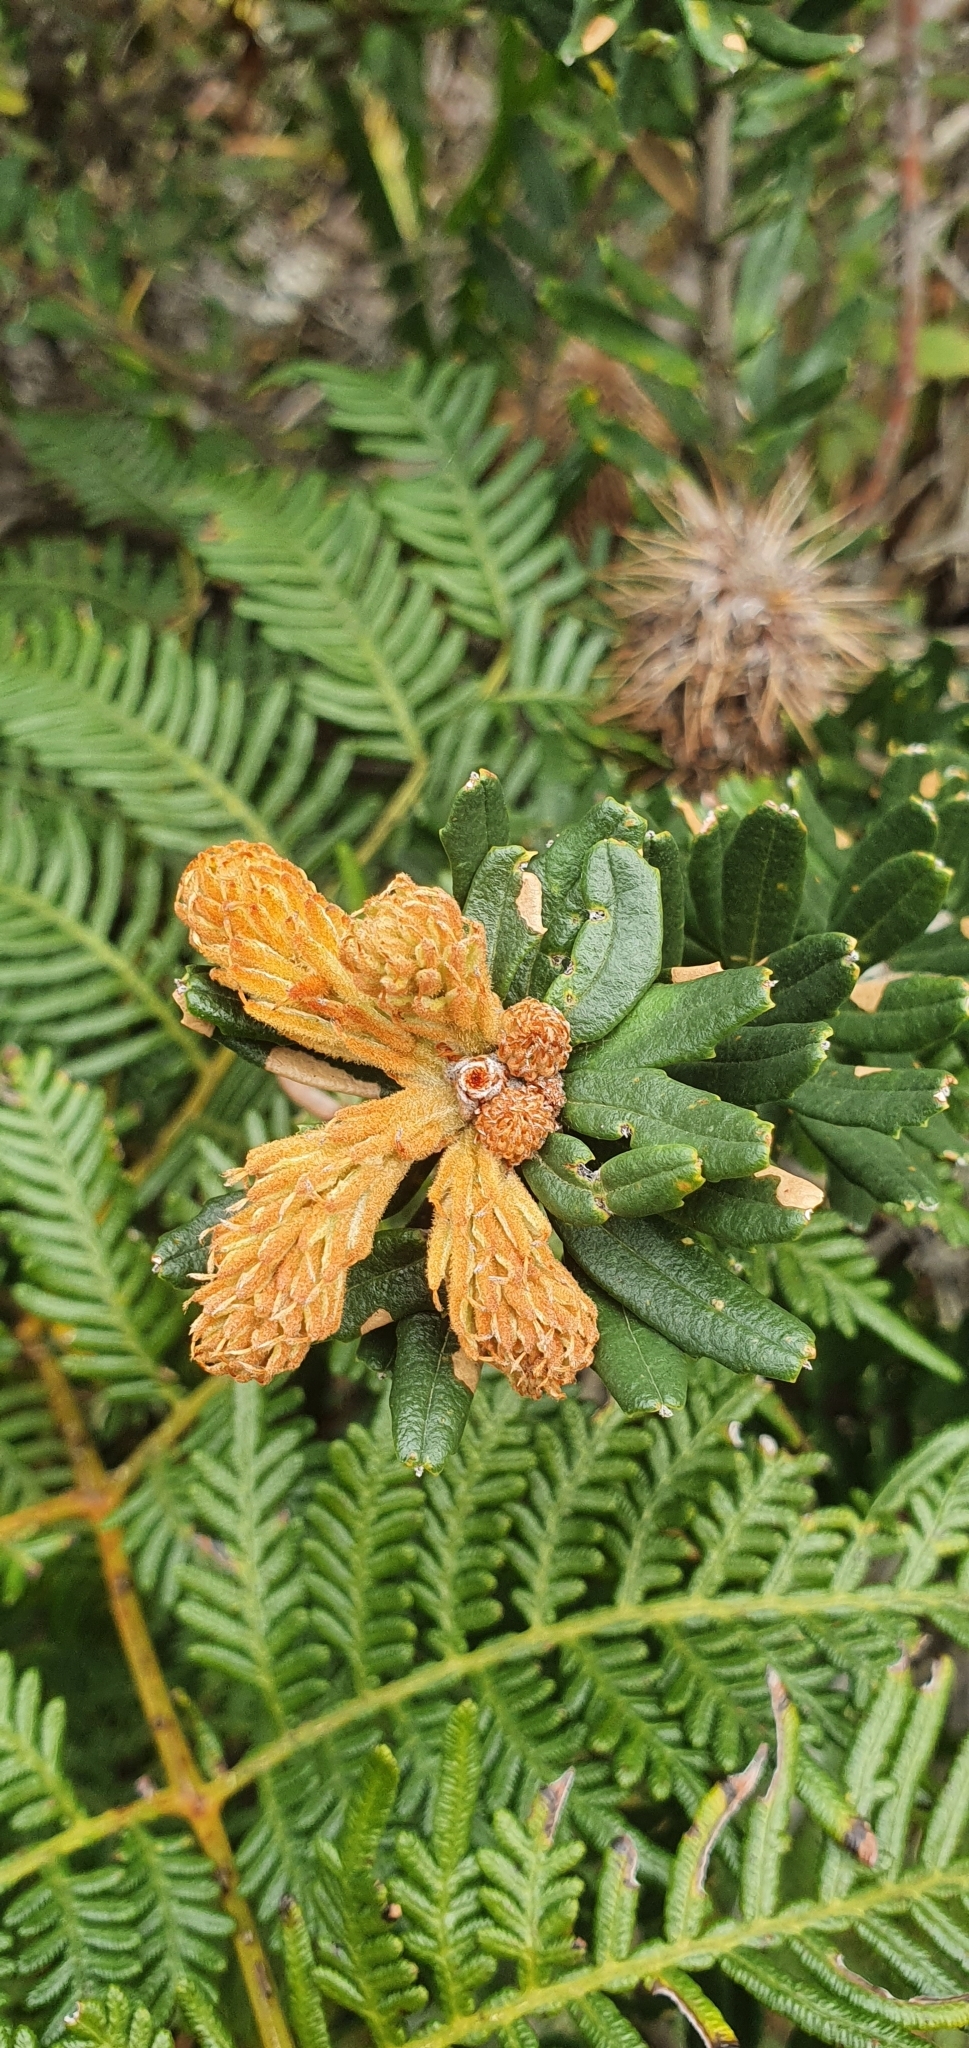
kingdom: Plantae
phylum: Tracheophyta
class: Magnoliopsida
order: Proteales
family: Proteaceae
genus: Banksia
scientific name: Banksia marginata
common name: Silver banksia
